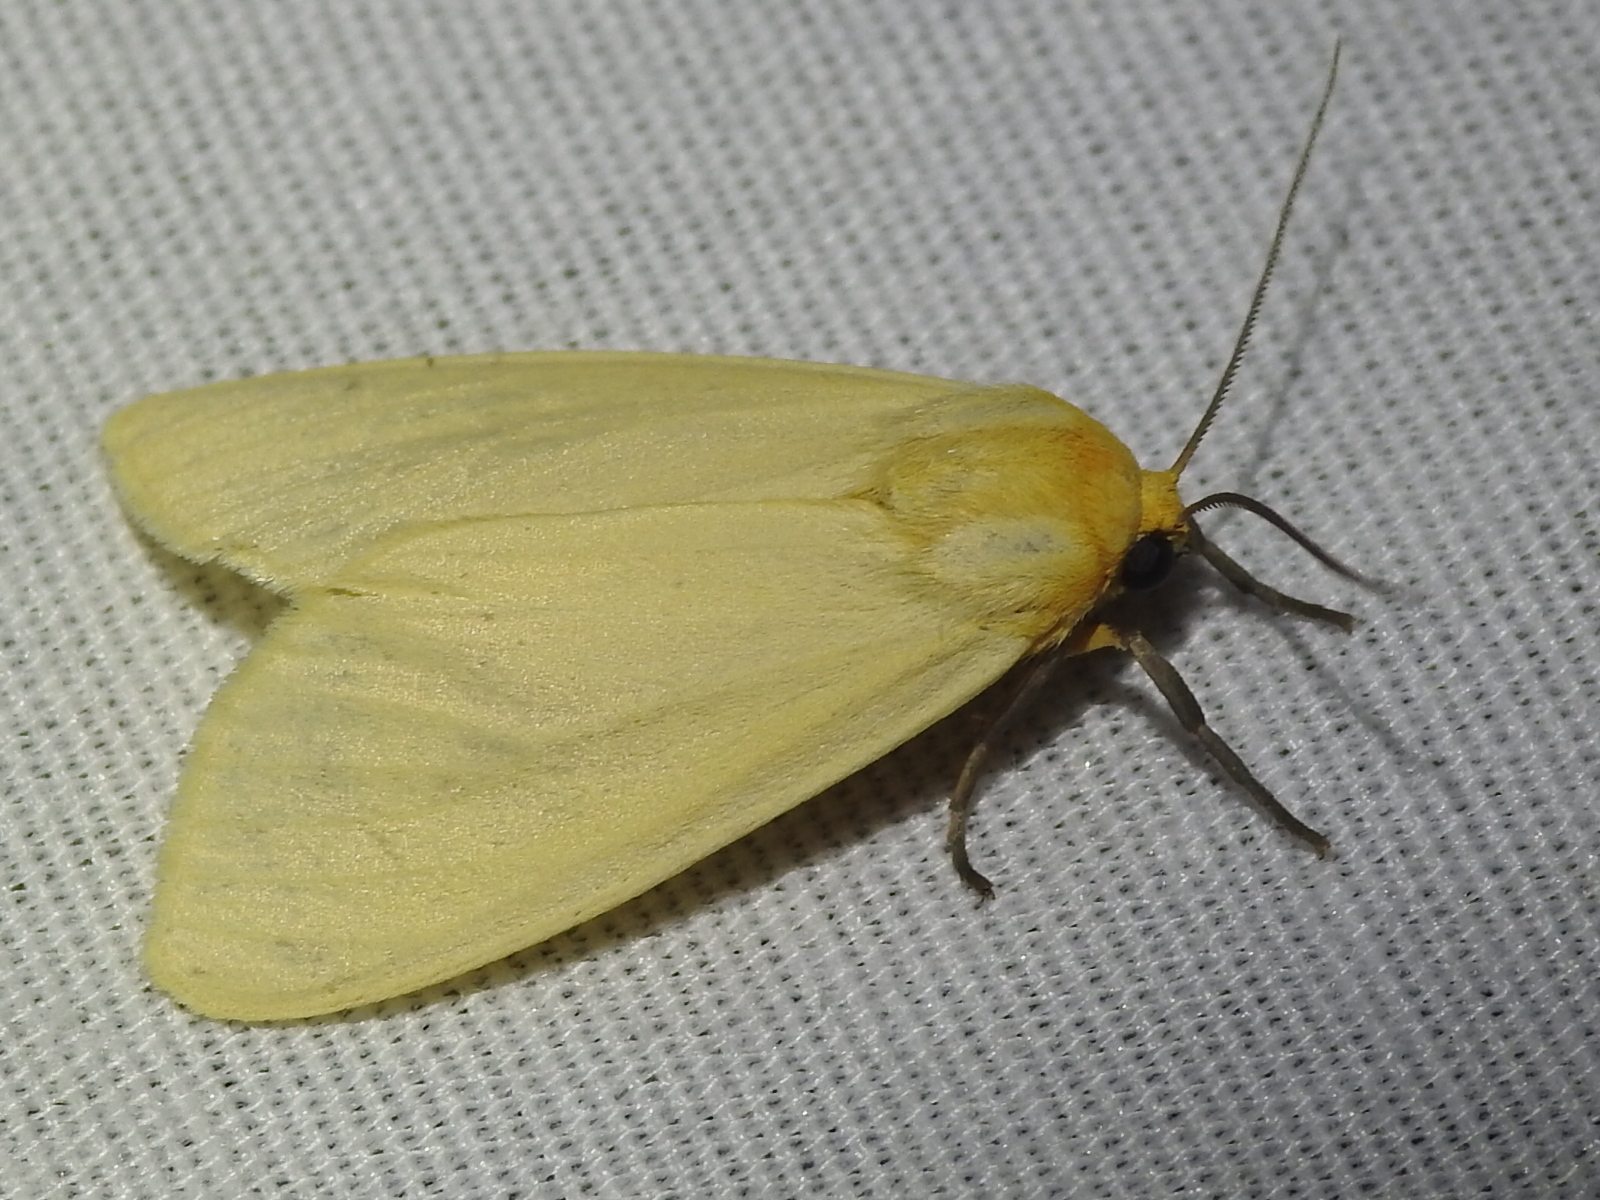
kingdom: Animalia
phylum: Arthropoda
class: Insecta
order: Lepidoptera
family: Erebidae
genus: Pareuchaetes
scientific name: Pareuchaetes insulata
